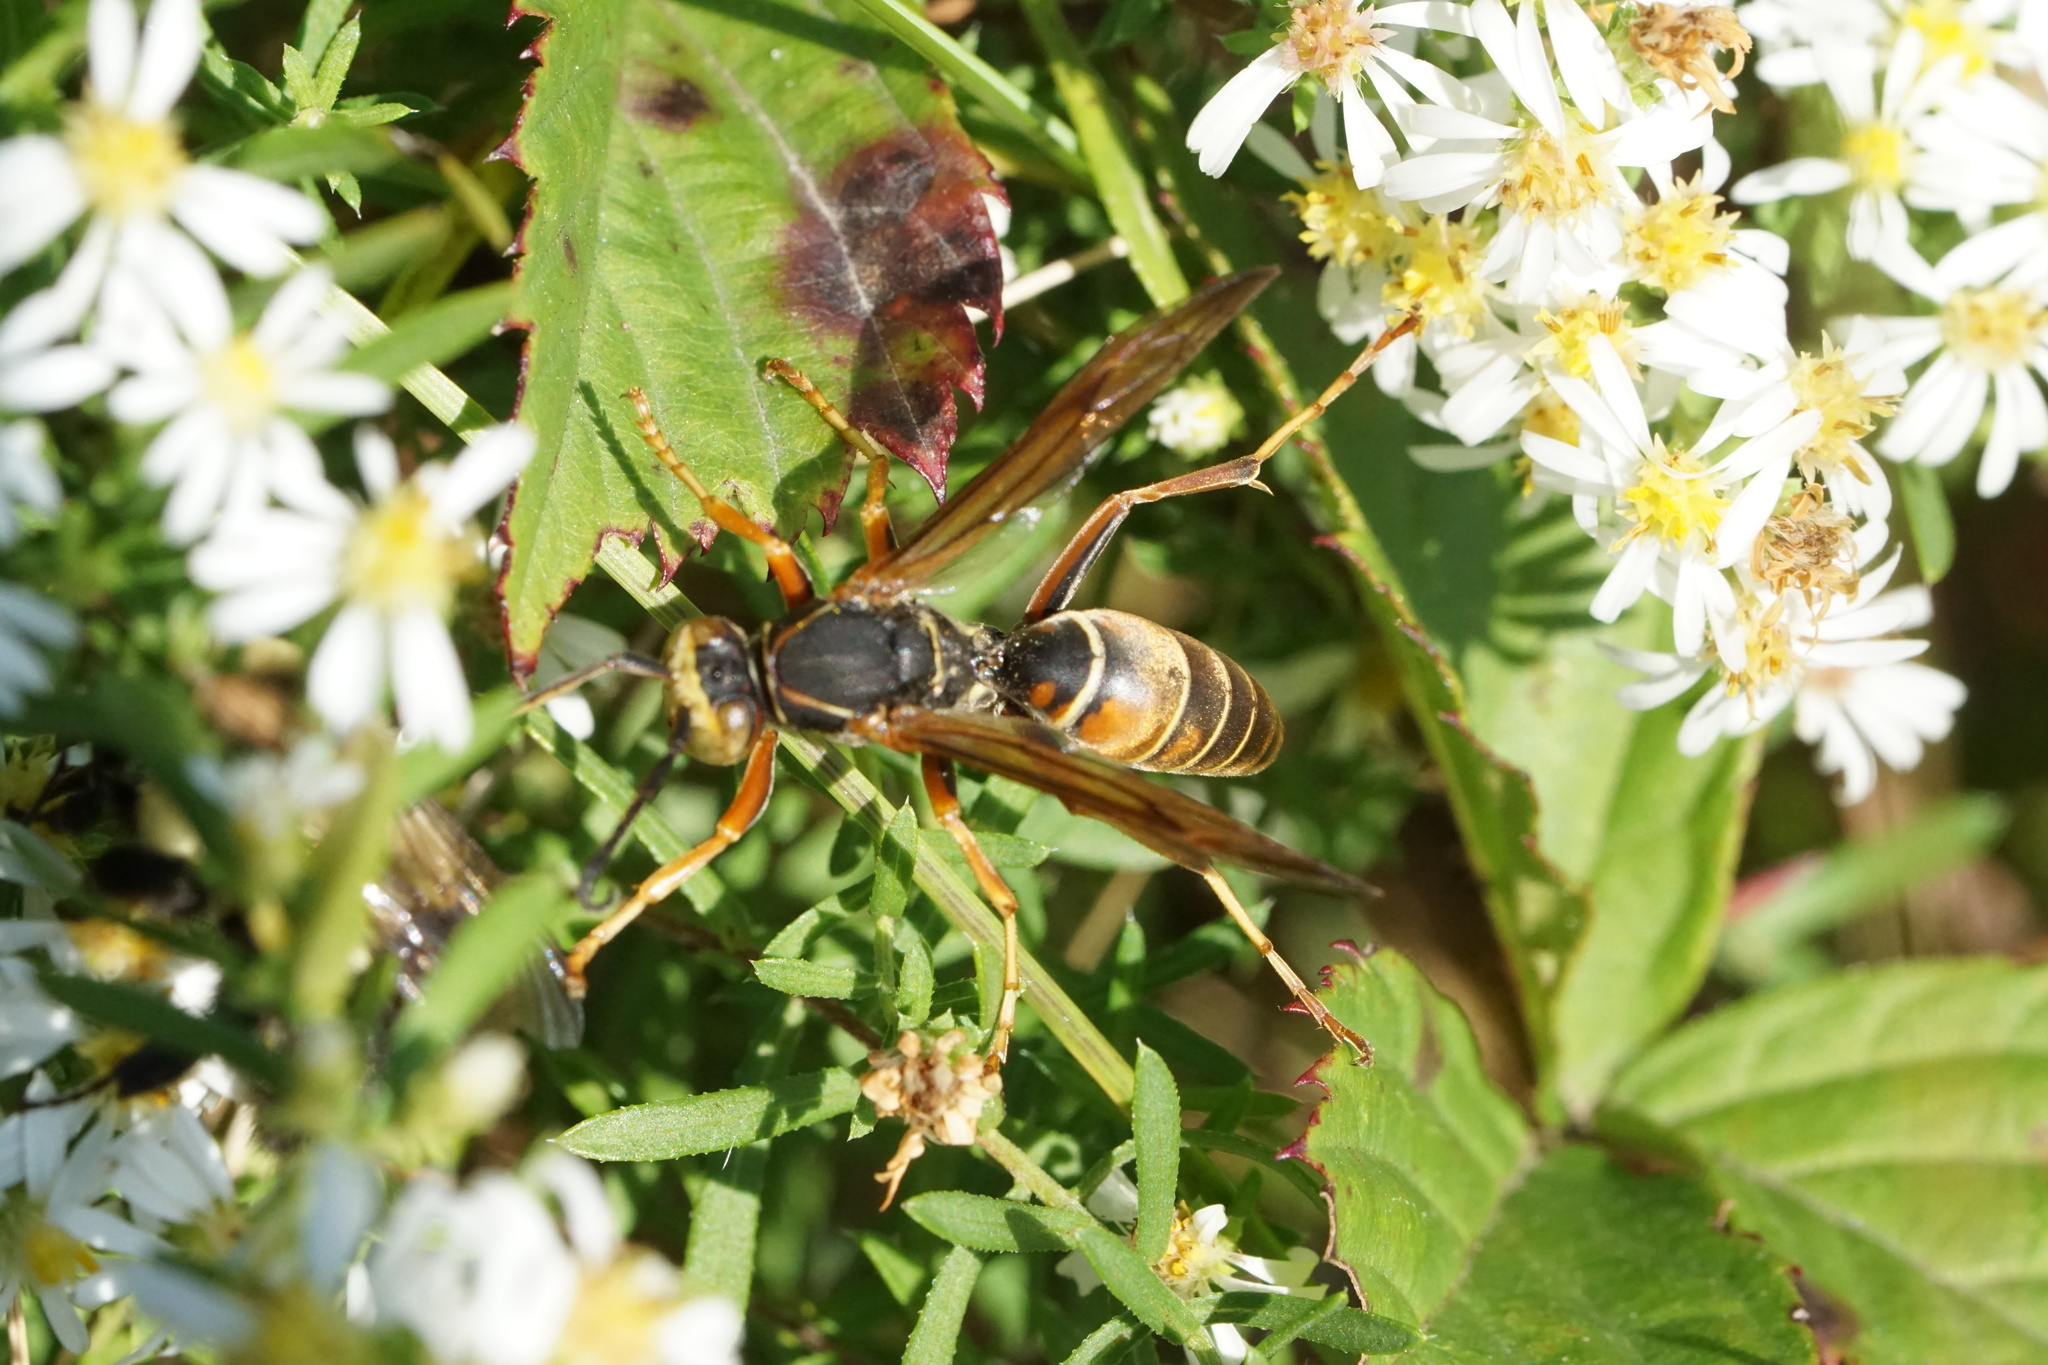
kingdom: Animalia
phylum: Arthropoda
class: Insecta
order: Hymenoptera
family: Eumenidae
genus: Polistes
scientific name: Polistes fuscatus
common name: Dark paper wasp
